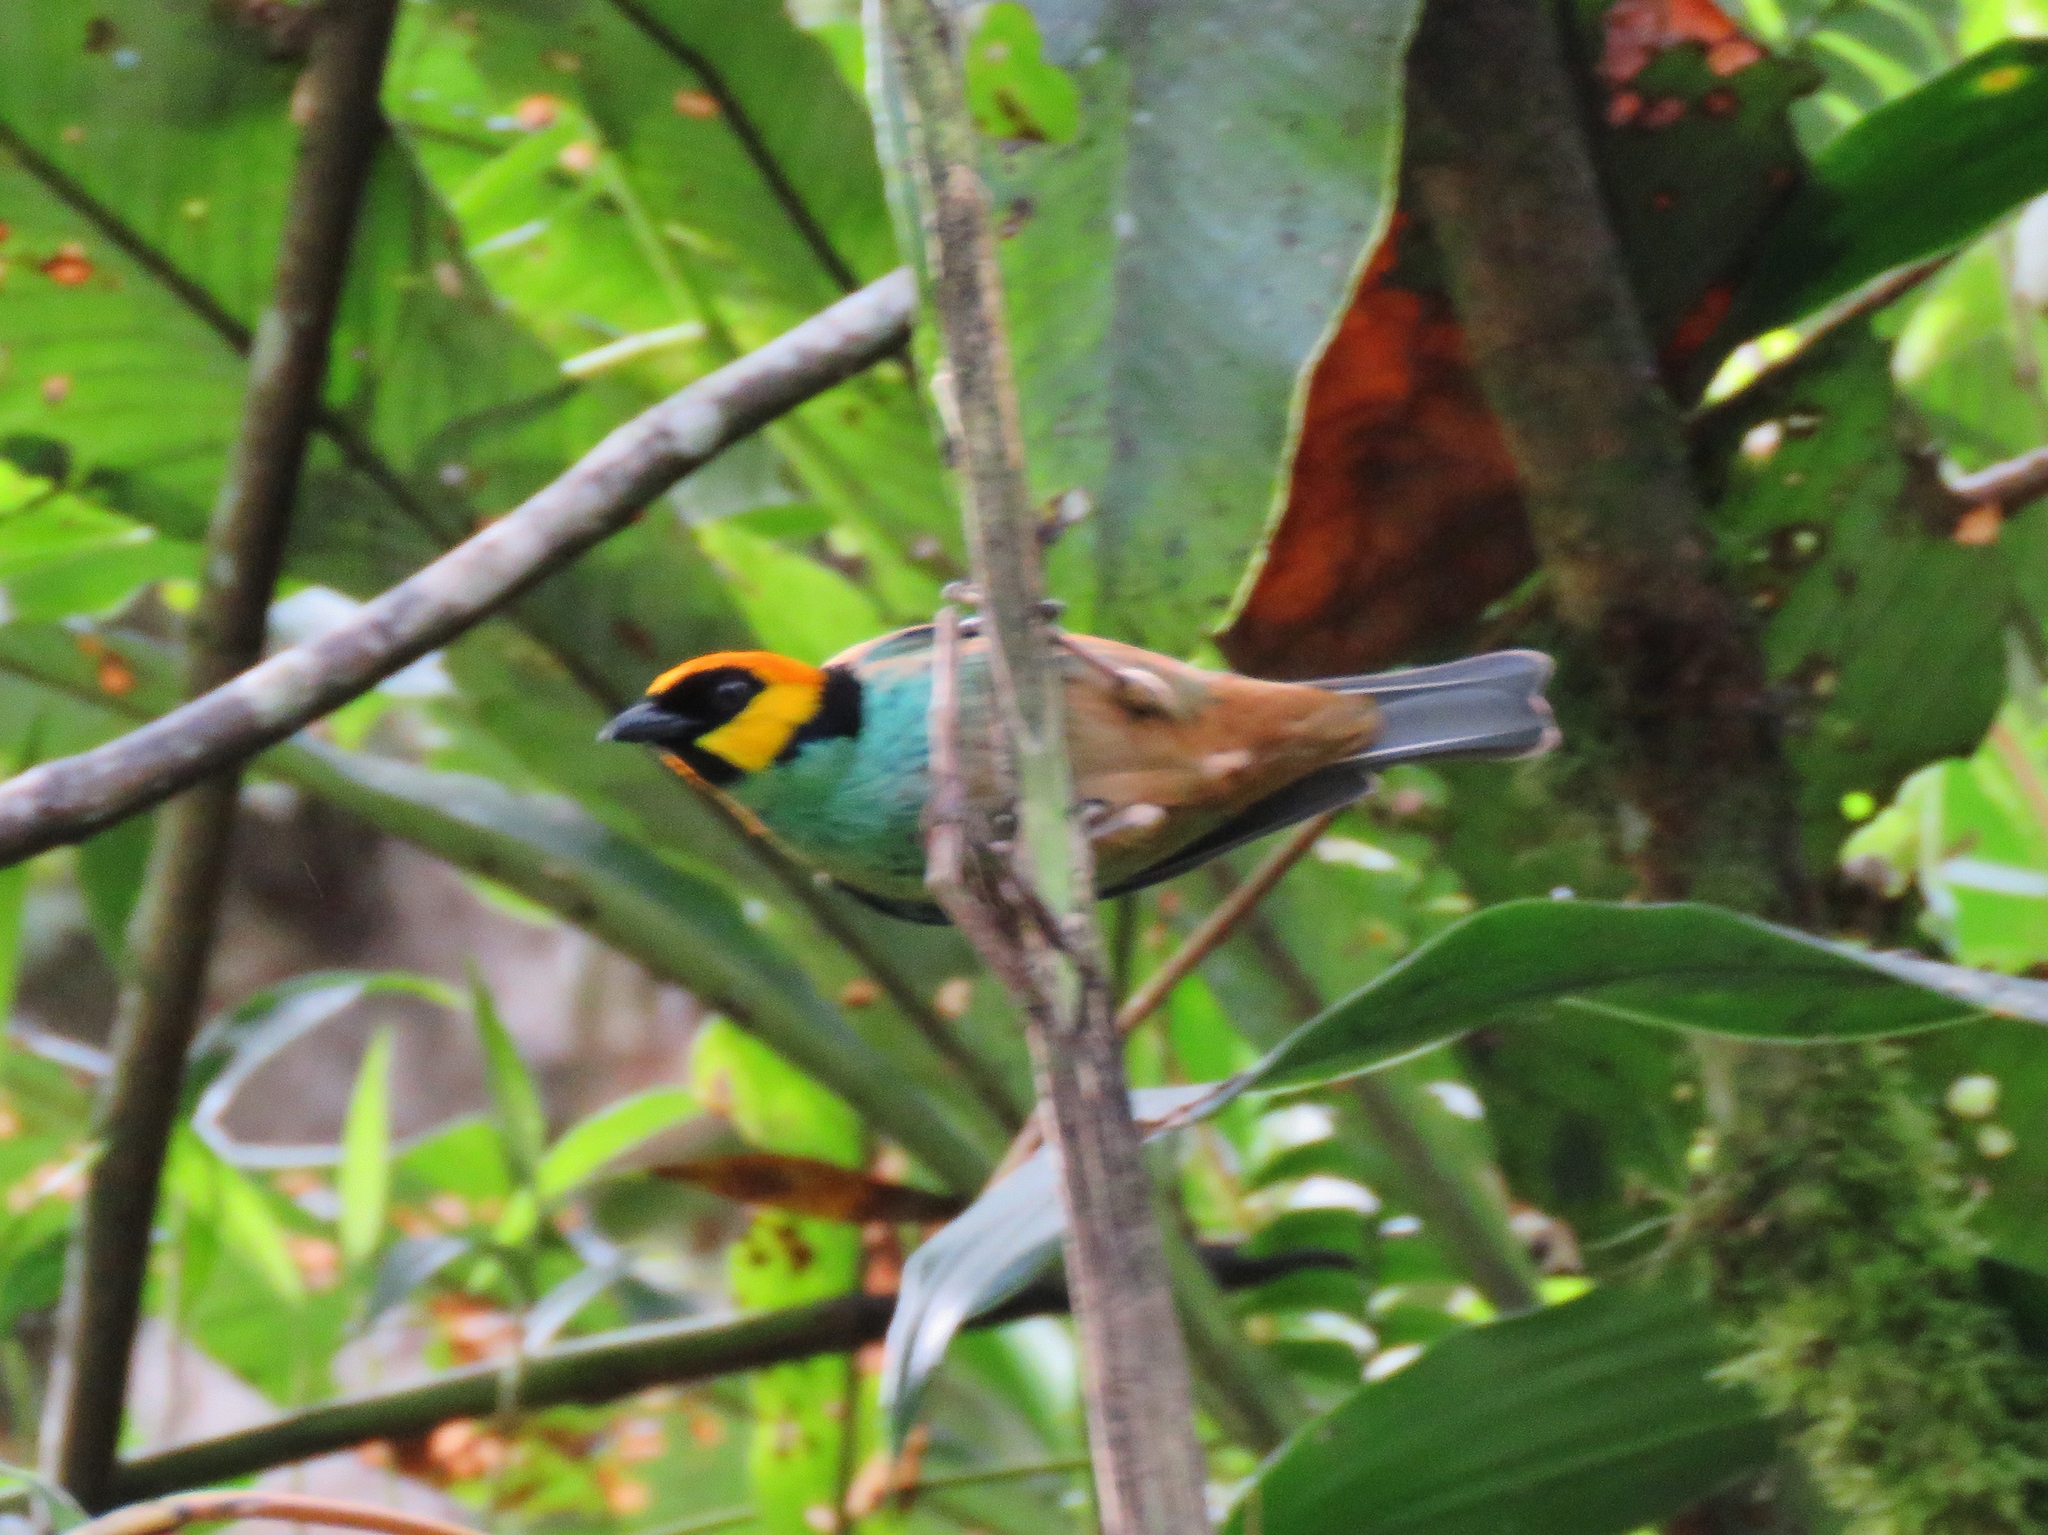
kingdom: Animalia
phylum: Chordata
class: Aves
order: Passeriformes
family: Thraupidae
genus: Tangara
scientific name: Tangara xanthocephala
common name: Saffron-crowned tanager
